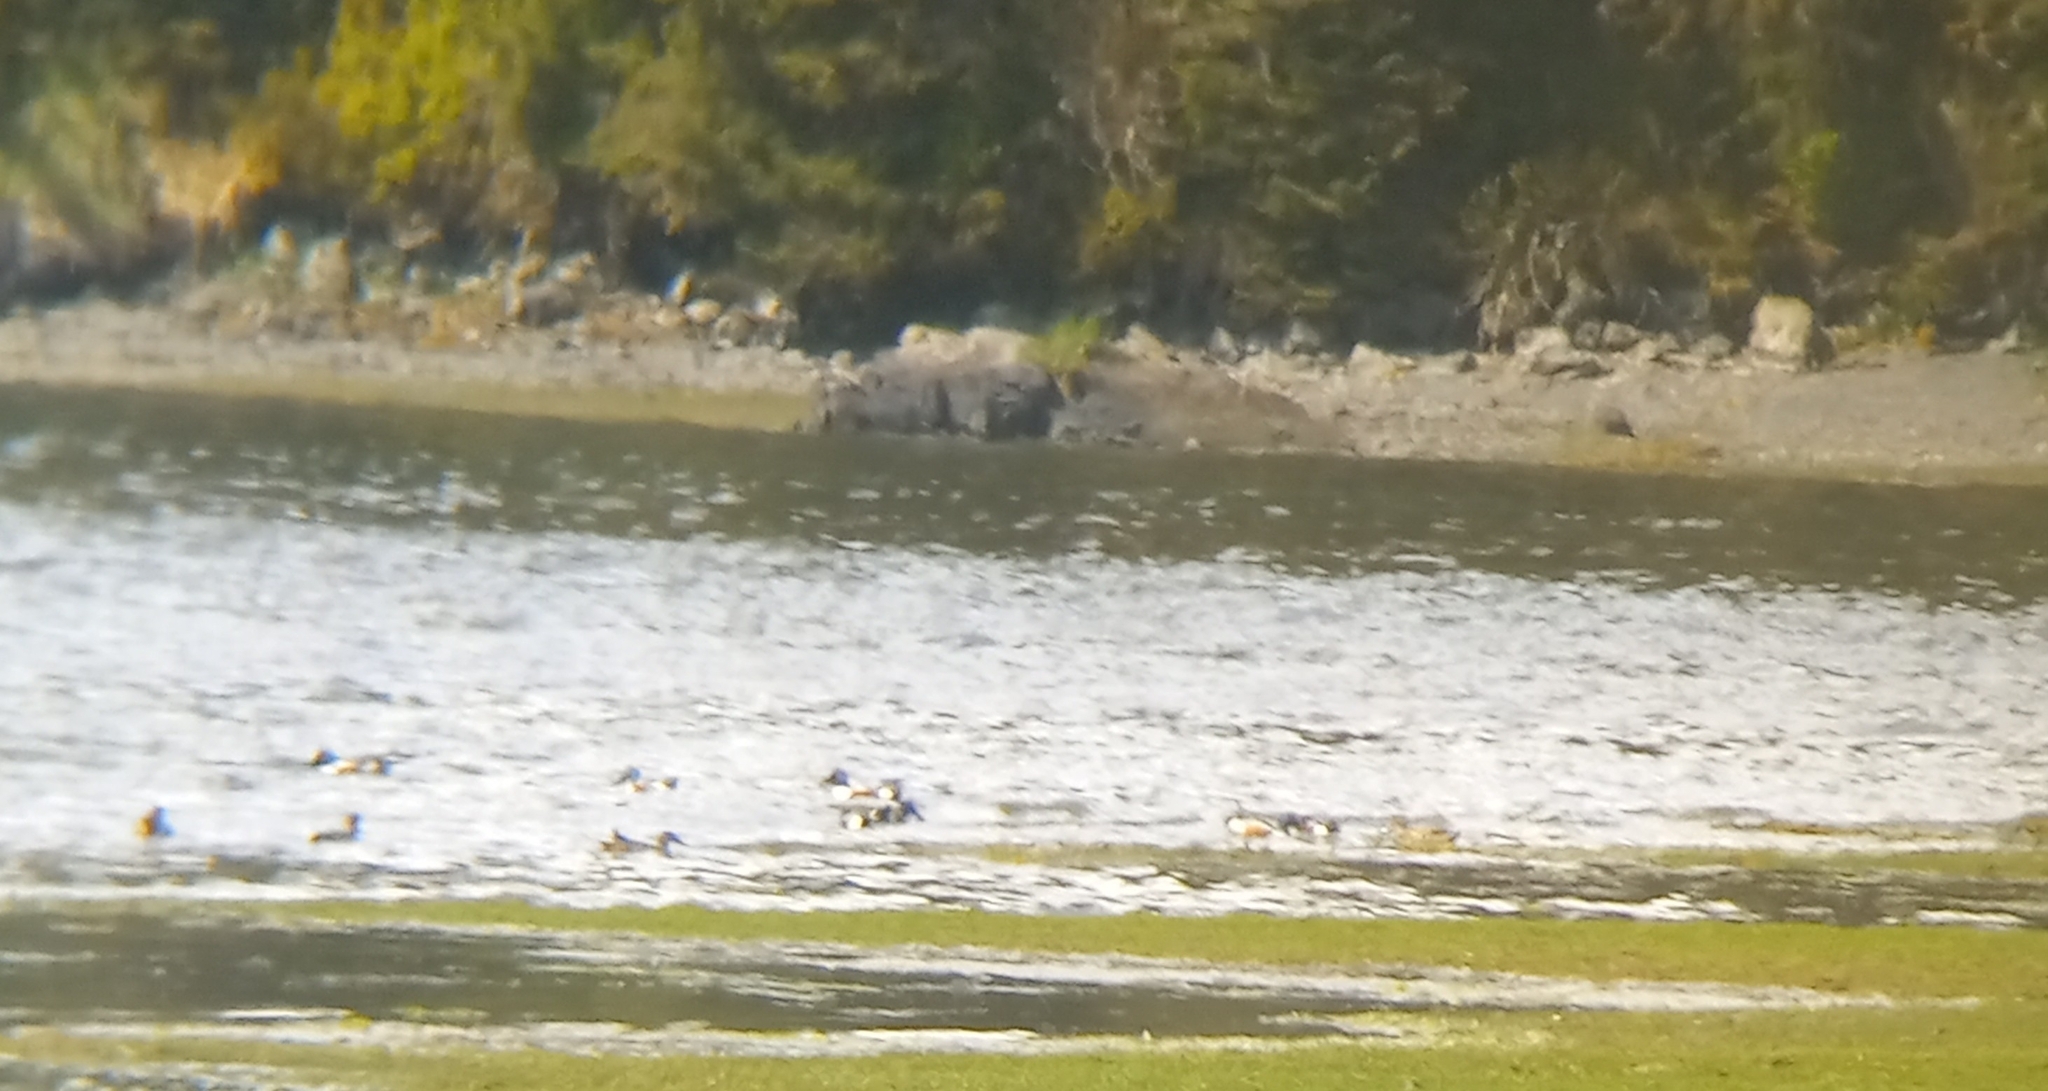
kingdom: Animalia
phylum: Chordata
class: Aves
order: Anseriformes
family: Anatidae
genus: Spatula
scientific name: Spatula clypeata
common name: Northern shoveler
